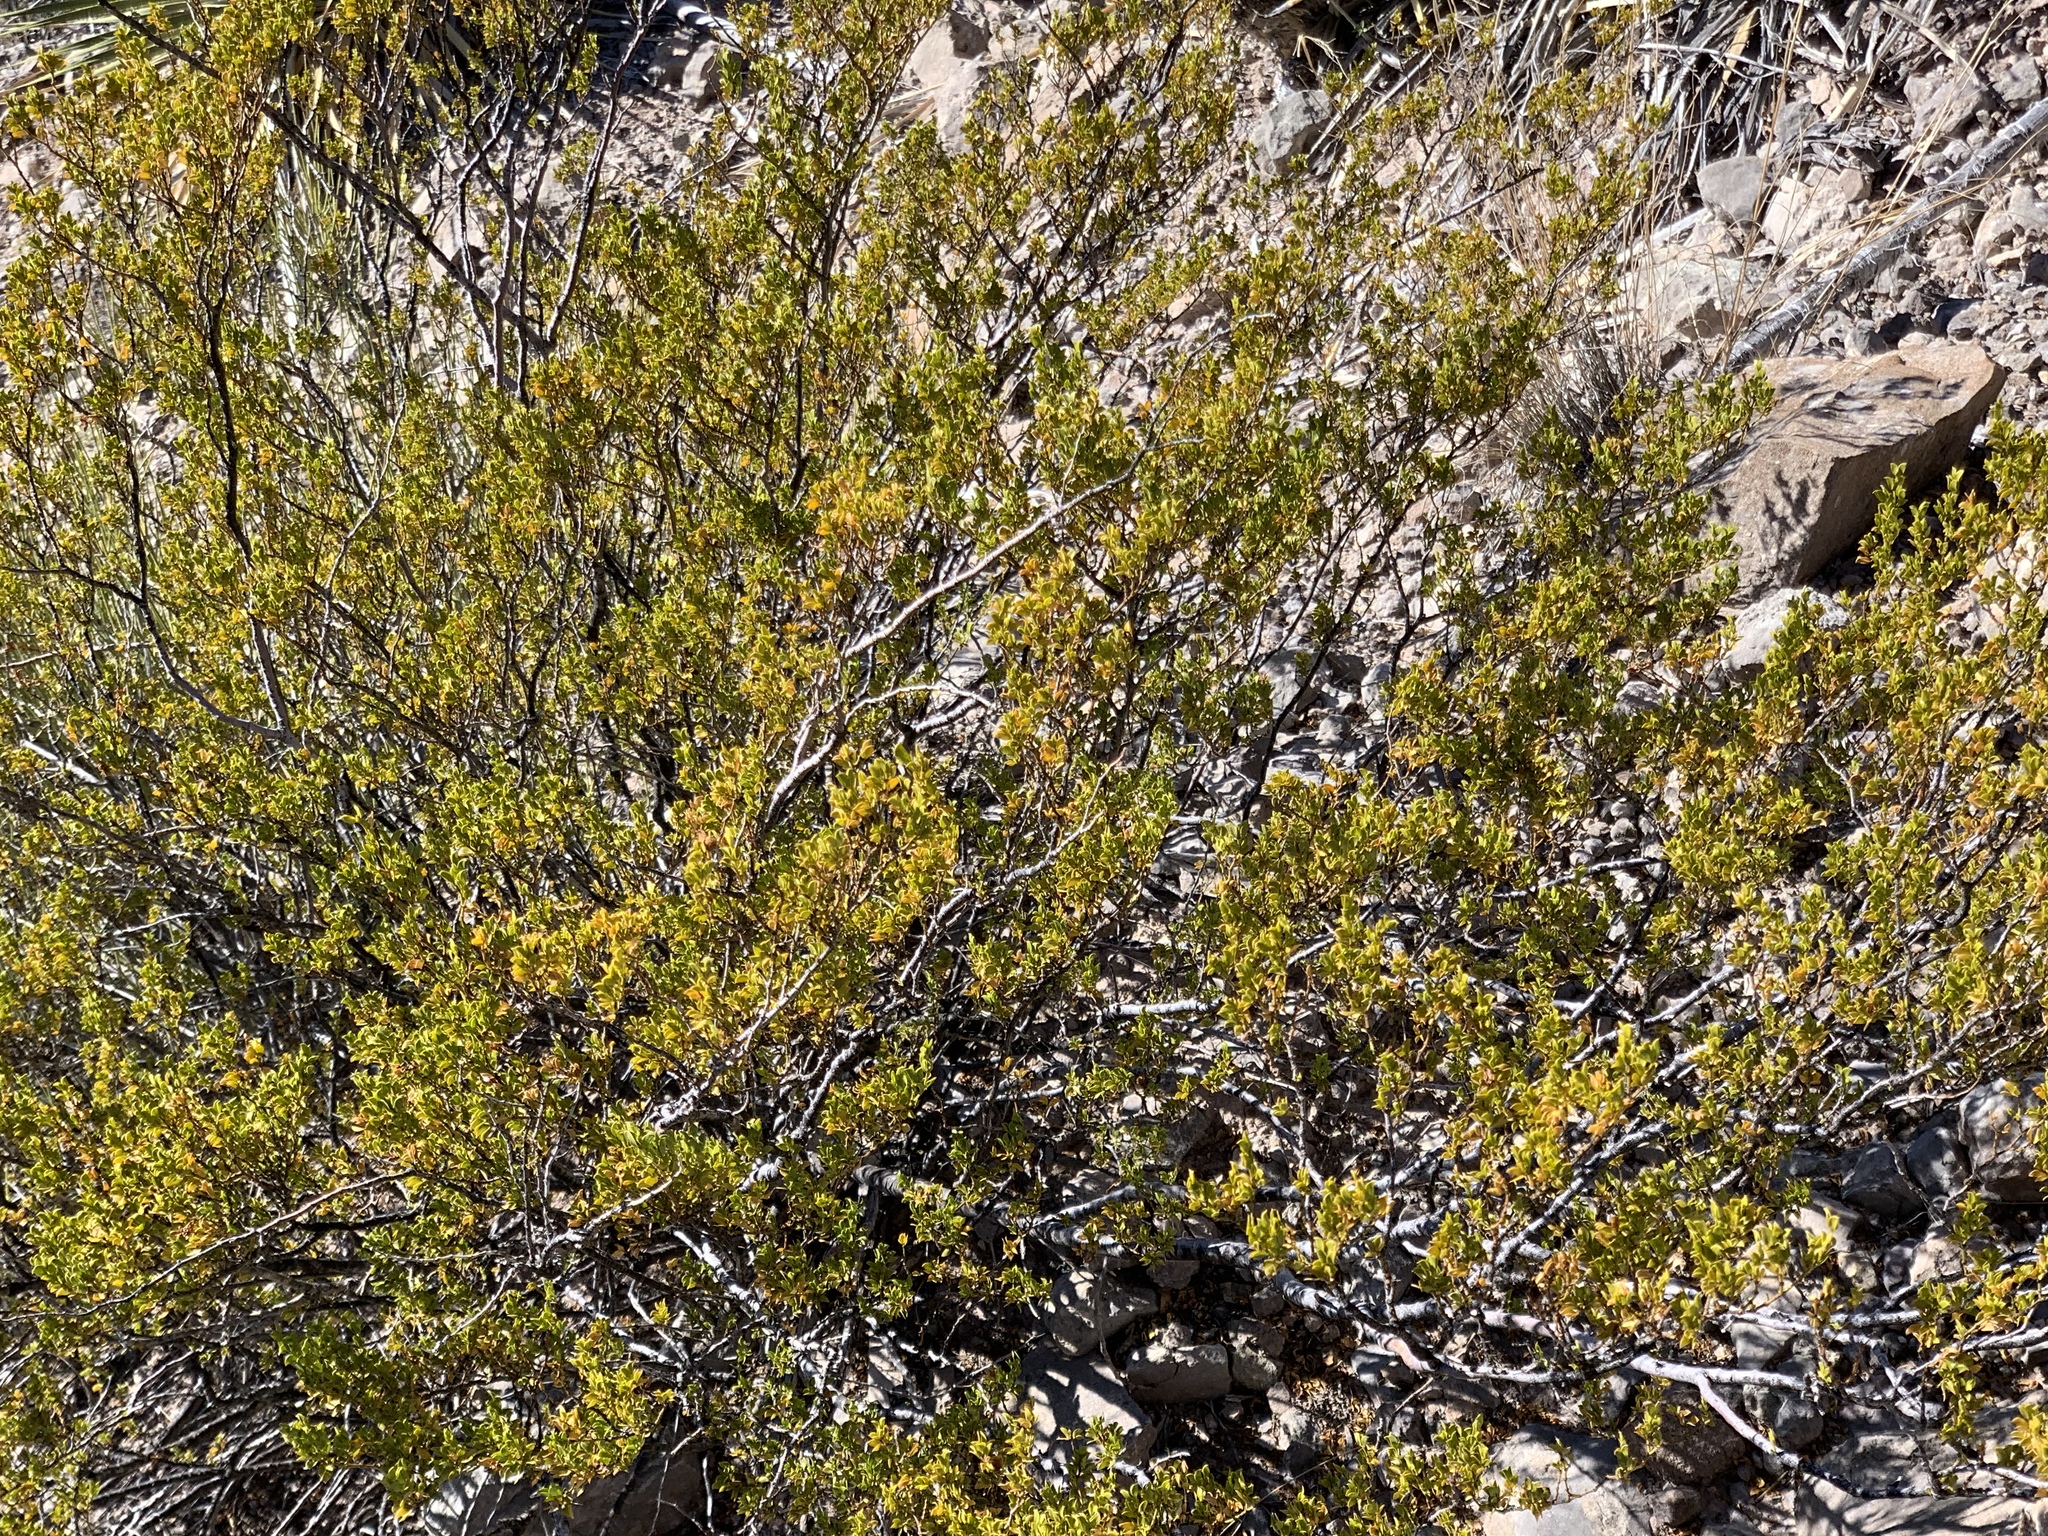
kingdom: Plantae
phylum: Tracheophyta
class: Magnoliopsida
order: Zygophyllales
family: Zygophyllaceae
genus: Larrea
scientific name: Larrea tridentata
